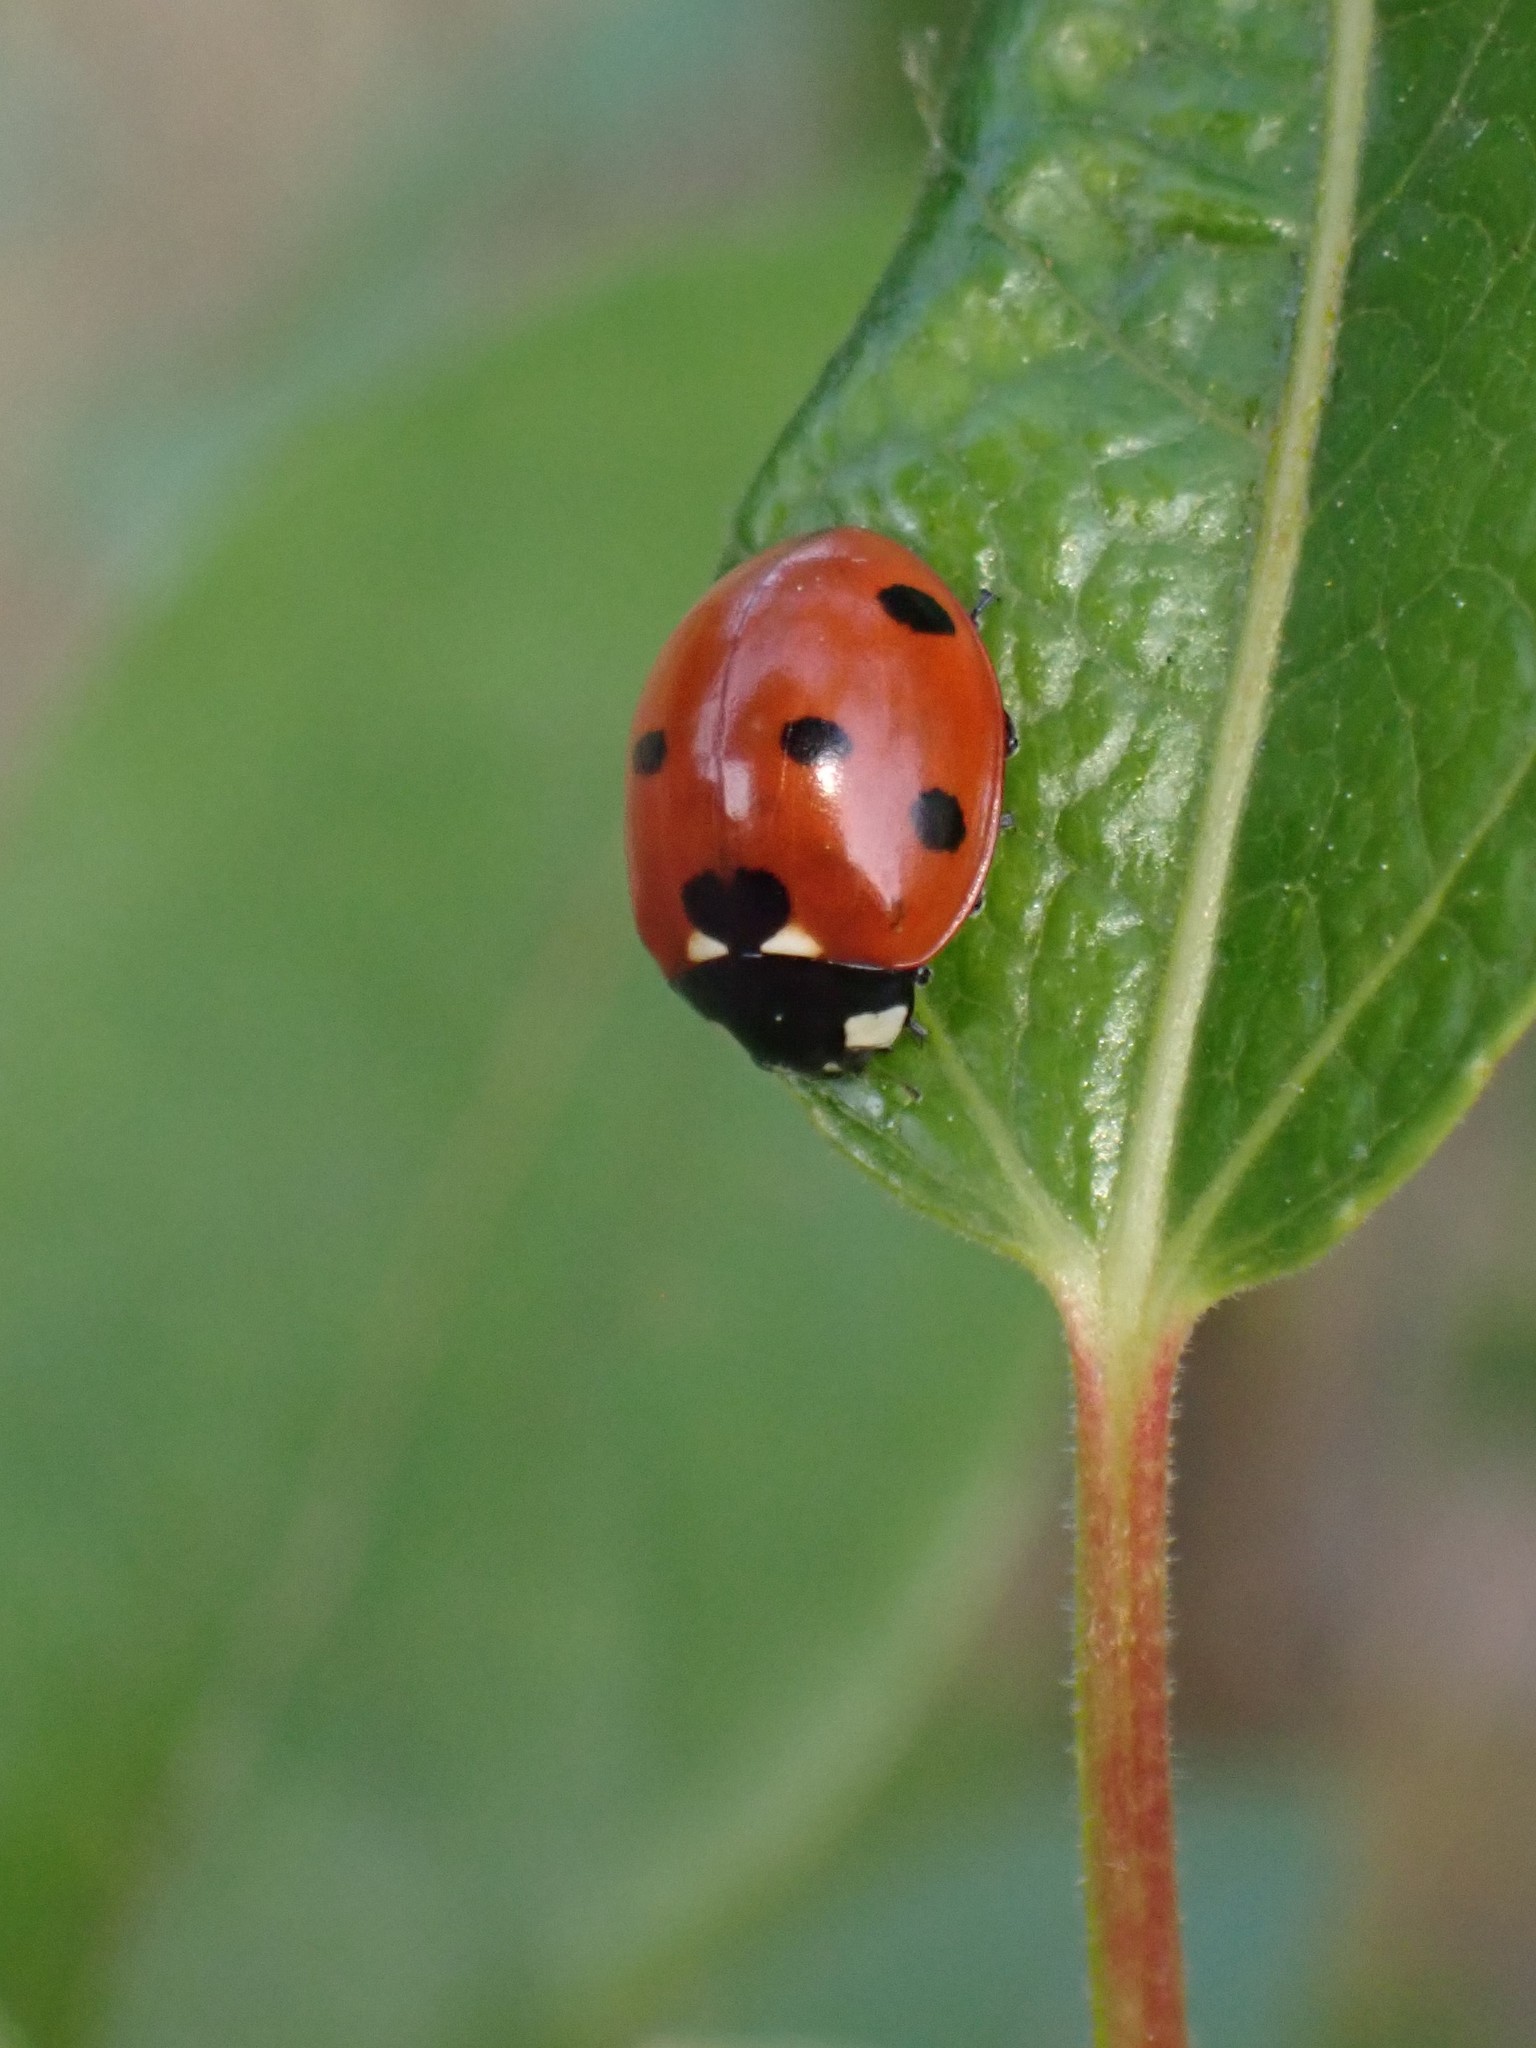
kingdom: Animalia
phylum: Arthropoda
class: Insecta
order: Coleoptera
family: Coccinellidae
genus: Coccinella
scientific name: Coccinella septempunctata
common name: Sevenspotted lady beetle
